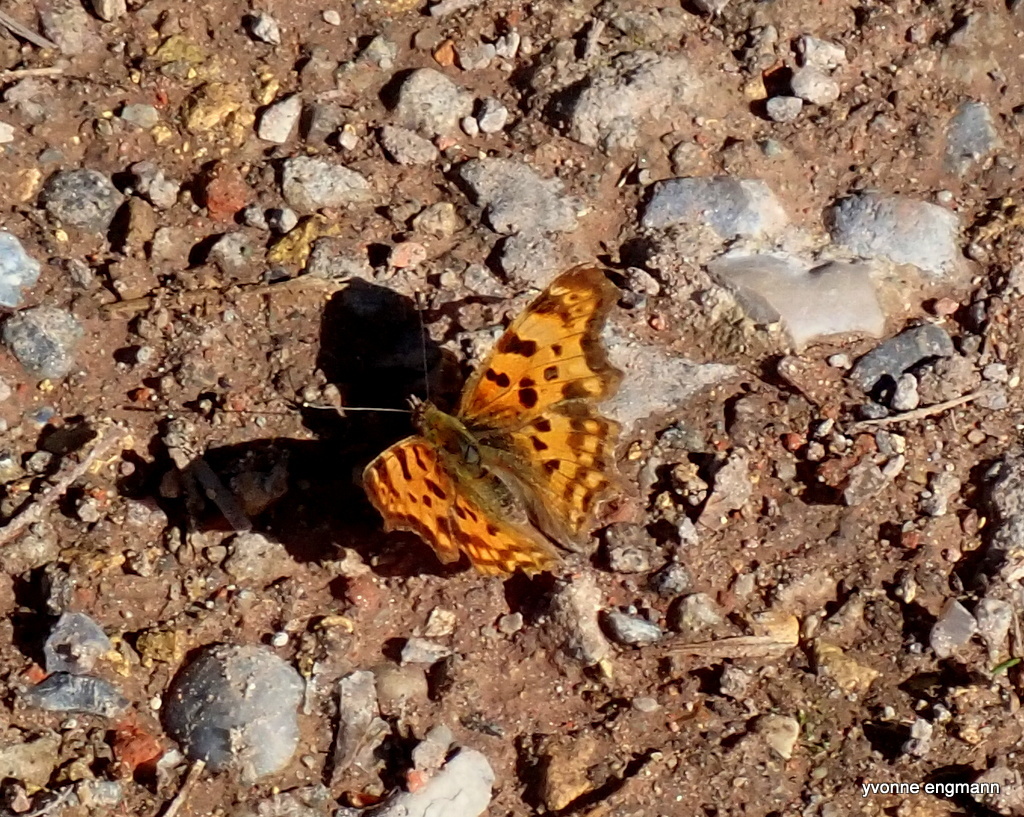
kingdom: Animalia
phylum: Arthropoda
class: Insecta
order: Lepidoptera
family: Nymphalidae
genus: Polygonia
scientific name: Polygonia c-album
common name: Comma
